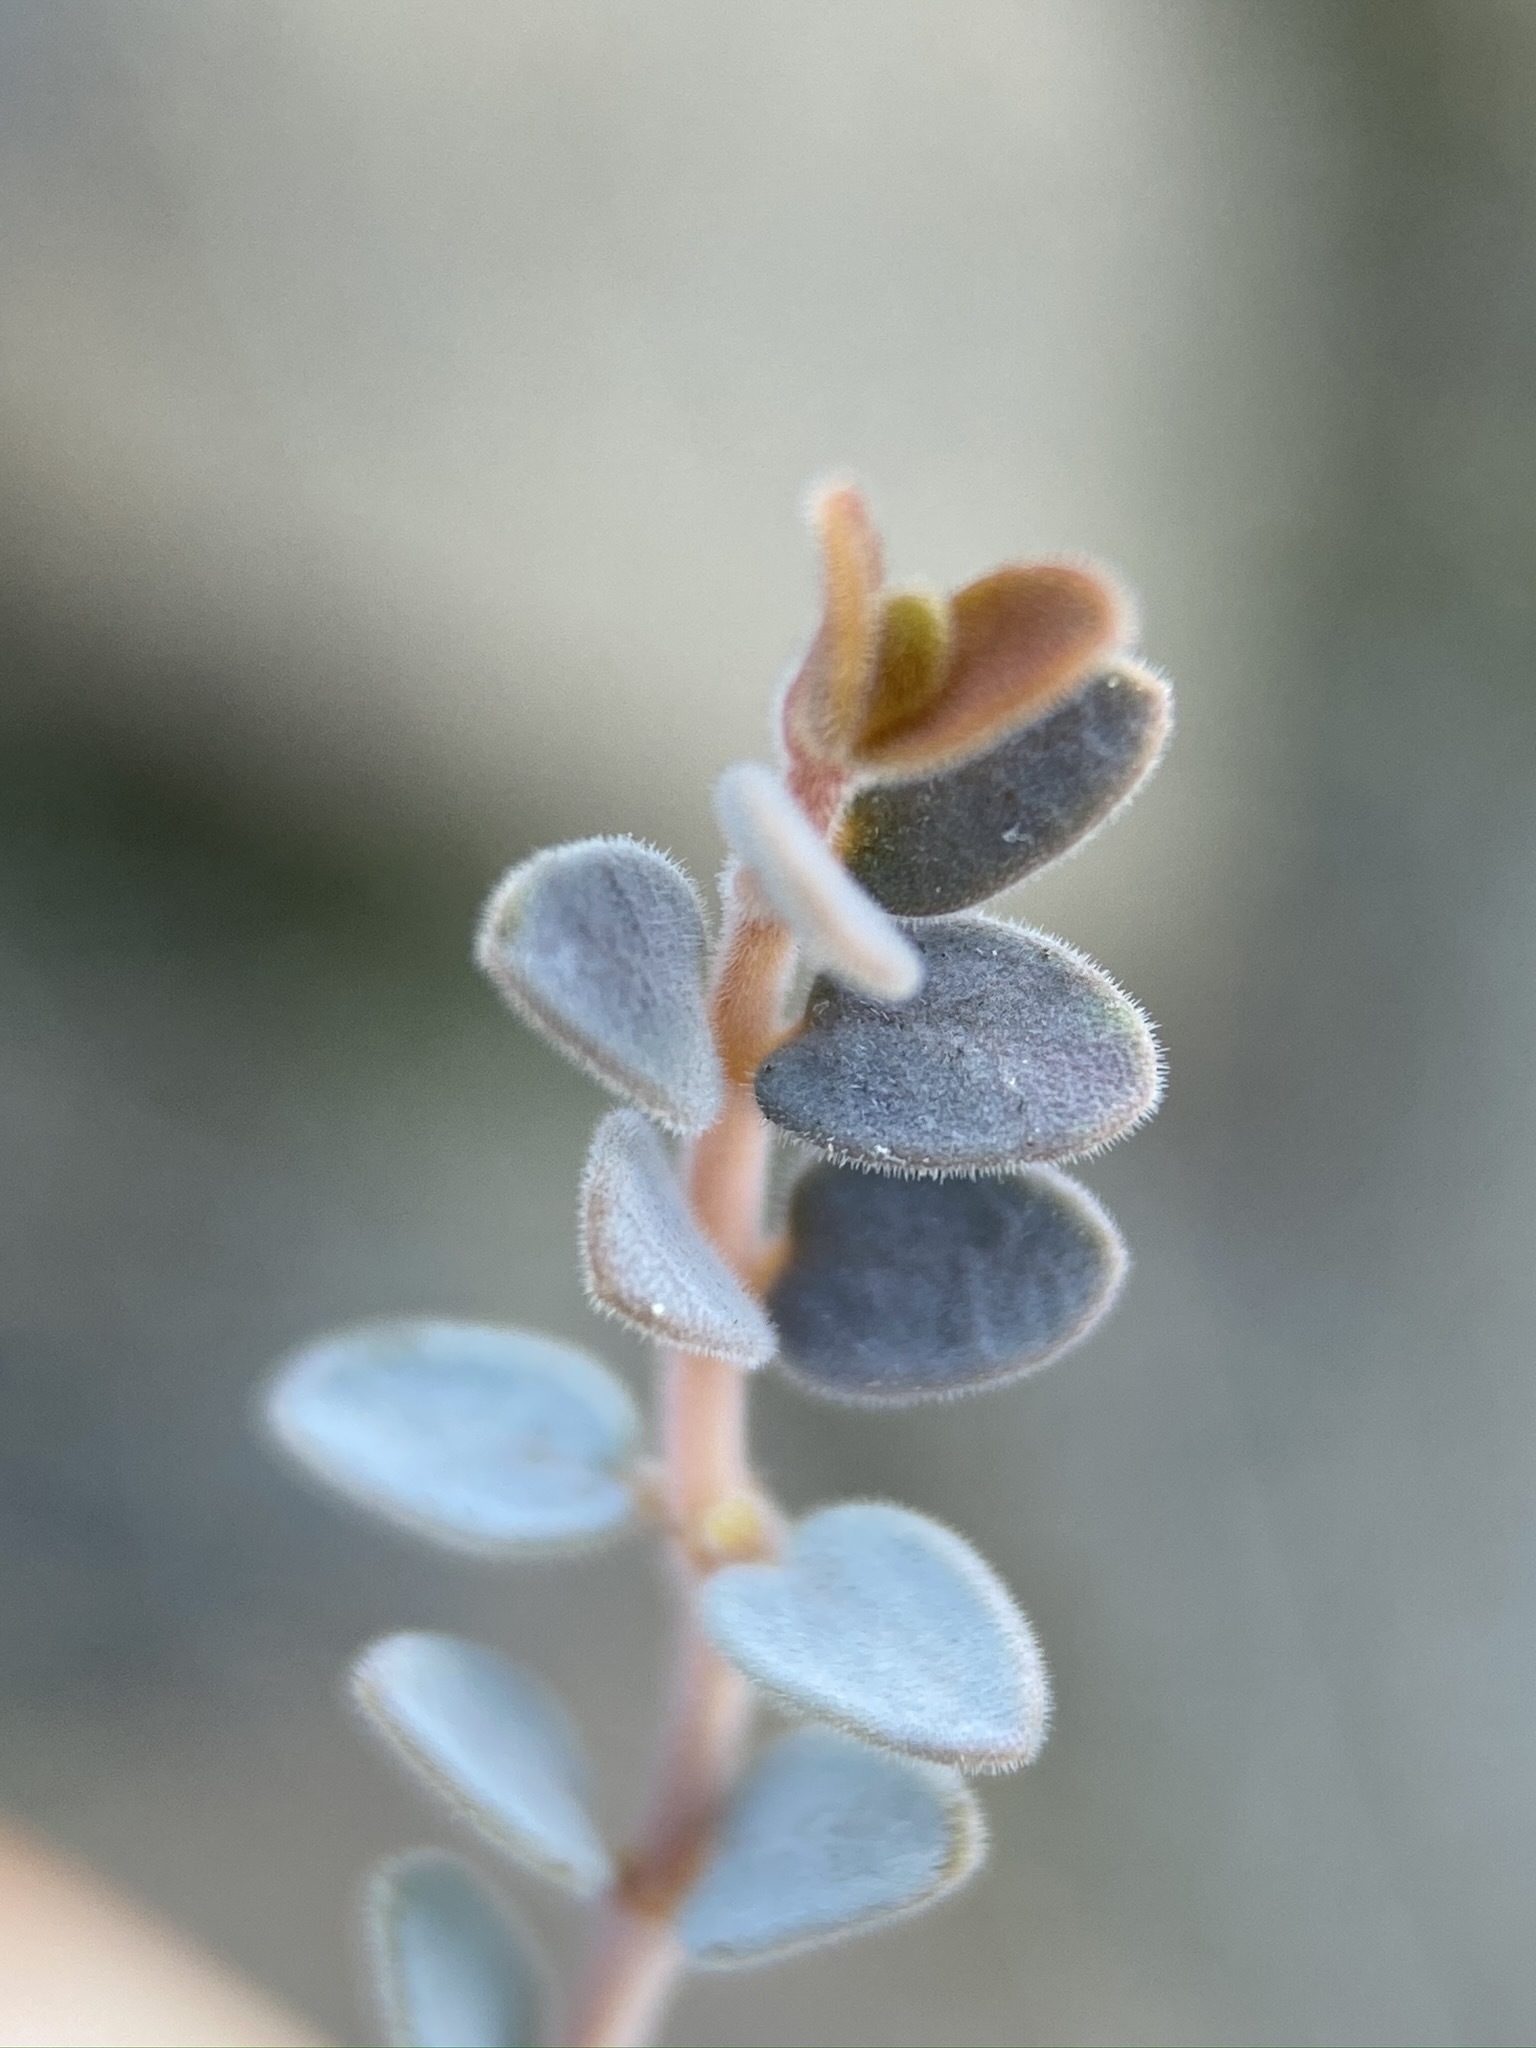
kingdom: Plantae
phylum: Tracheophyta
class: Magnoliopsida
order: Malpighiales
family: Euphorbiaceae
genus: Euphorbia
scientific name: Euphorbia jaegeri
